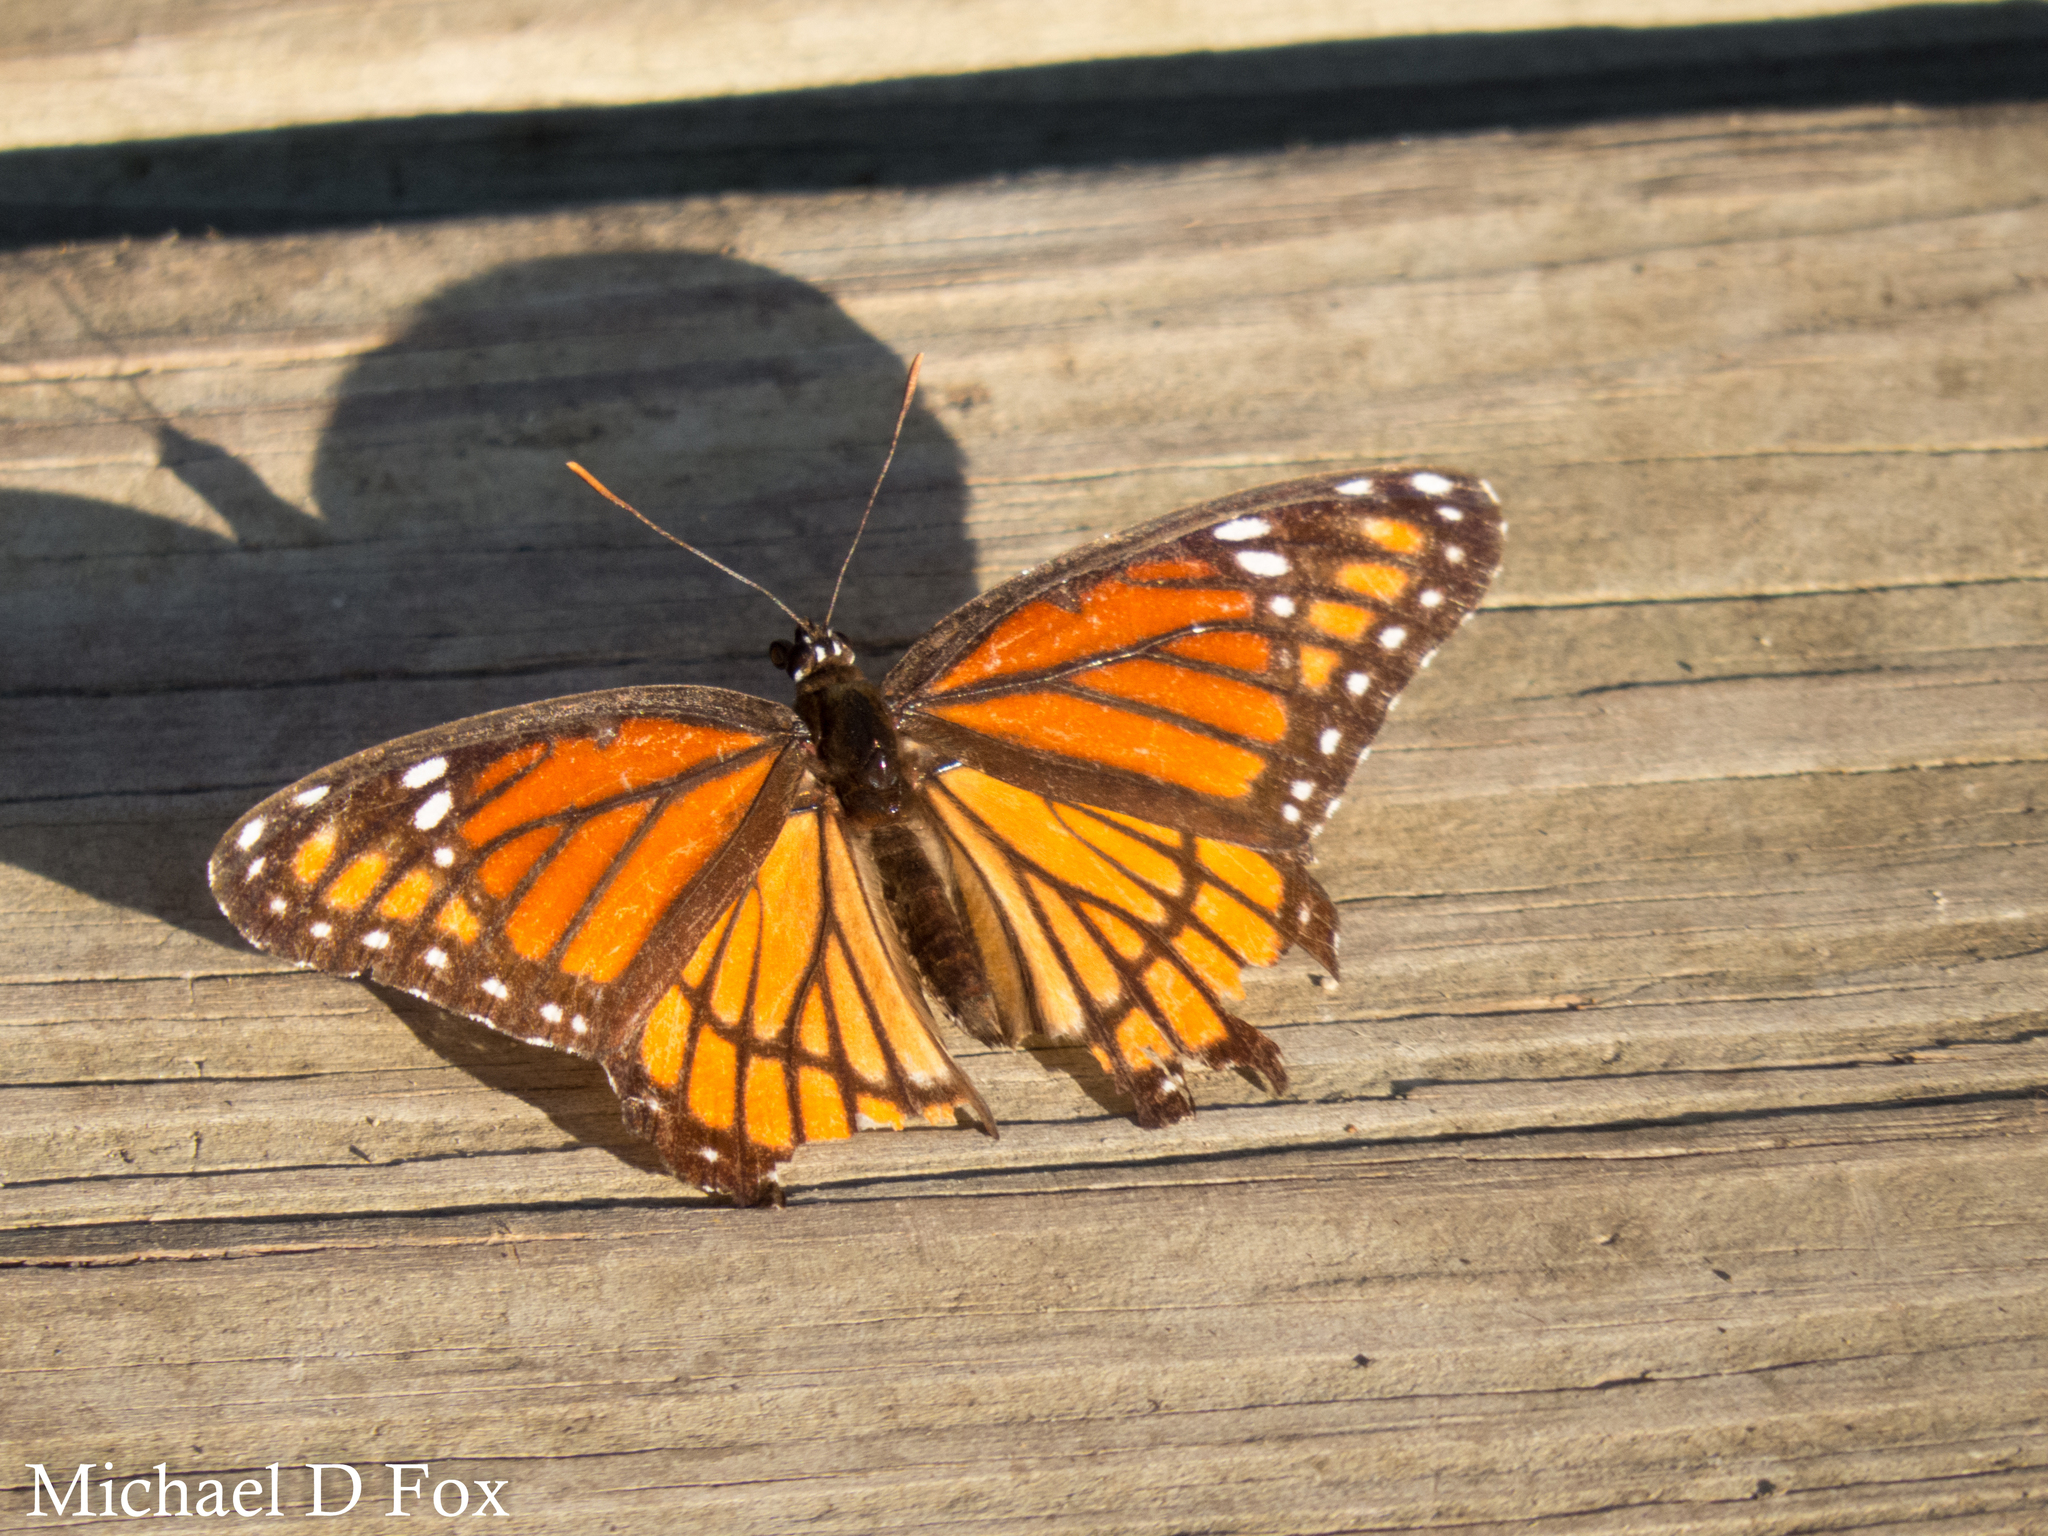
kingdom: Animalia
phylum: Arthropoda
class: Insecta
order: Lepidoptera
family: Nymphalidae
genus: Limenitis
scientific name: Limenitis archippus
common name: Viceroy
